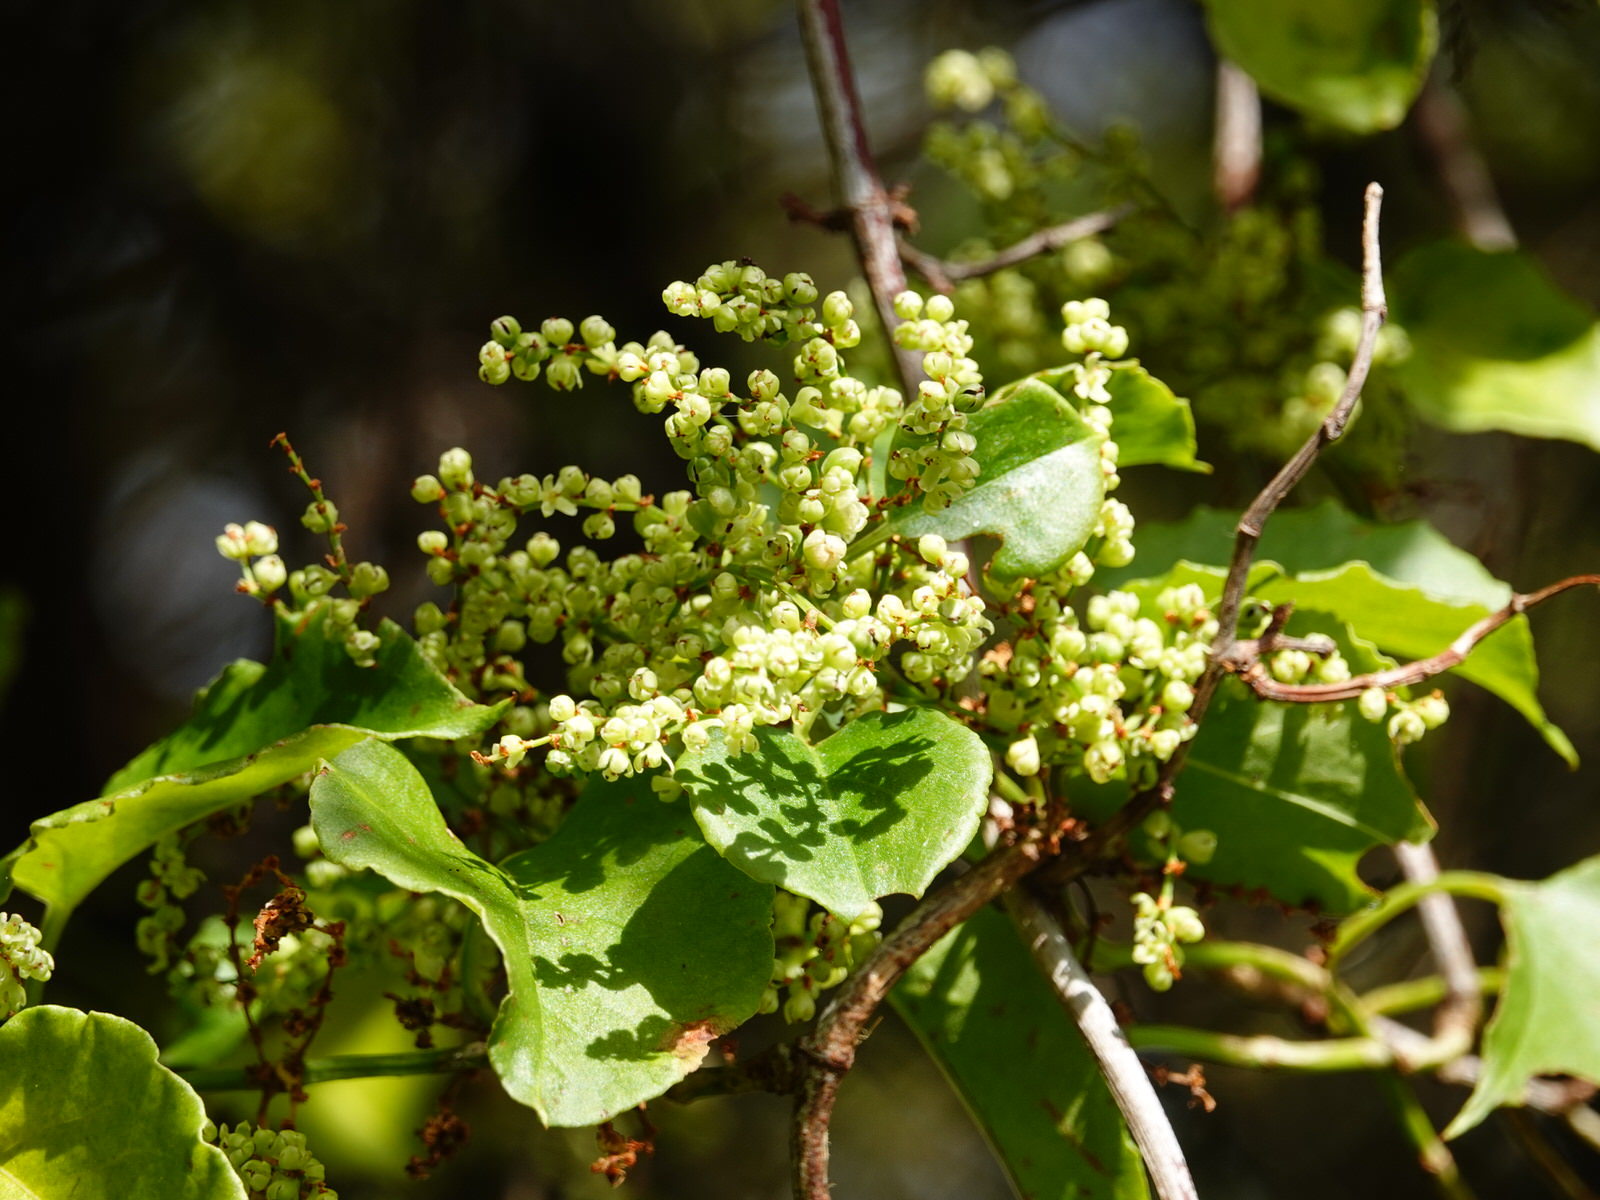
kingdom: Plantae
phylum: Tracheophyta
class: Magnoliopsida
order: Caryophyllales
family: Polygonaceae
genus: Muehlenbeckia
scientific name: Muehlenbeckia australis
